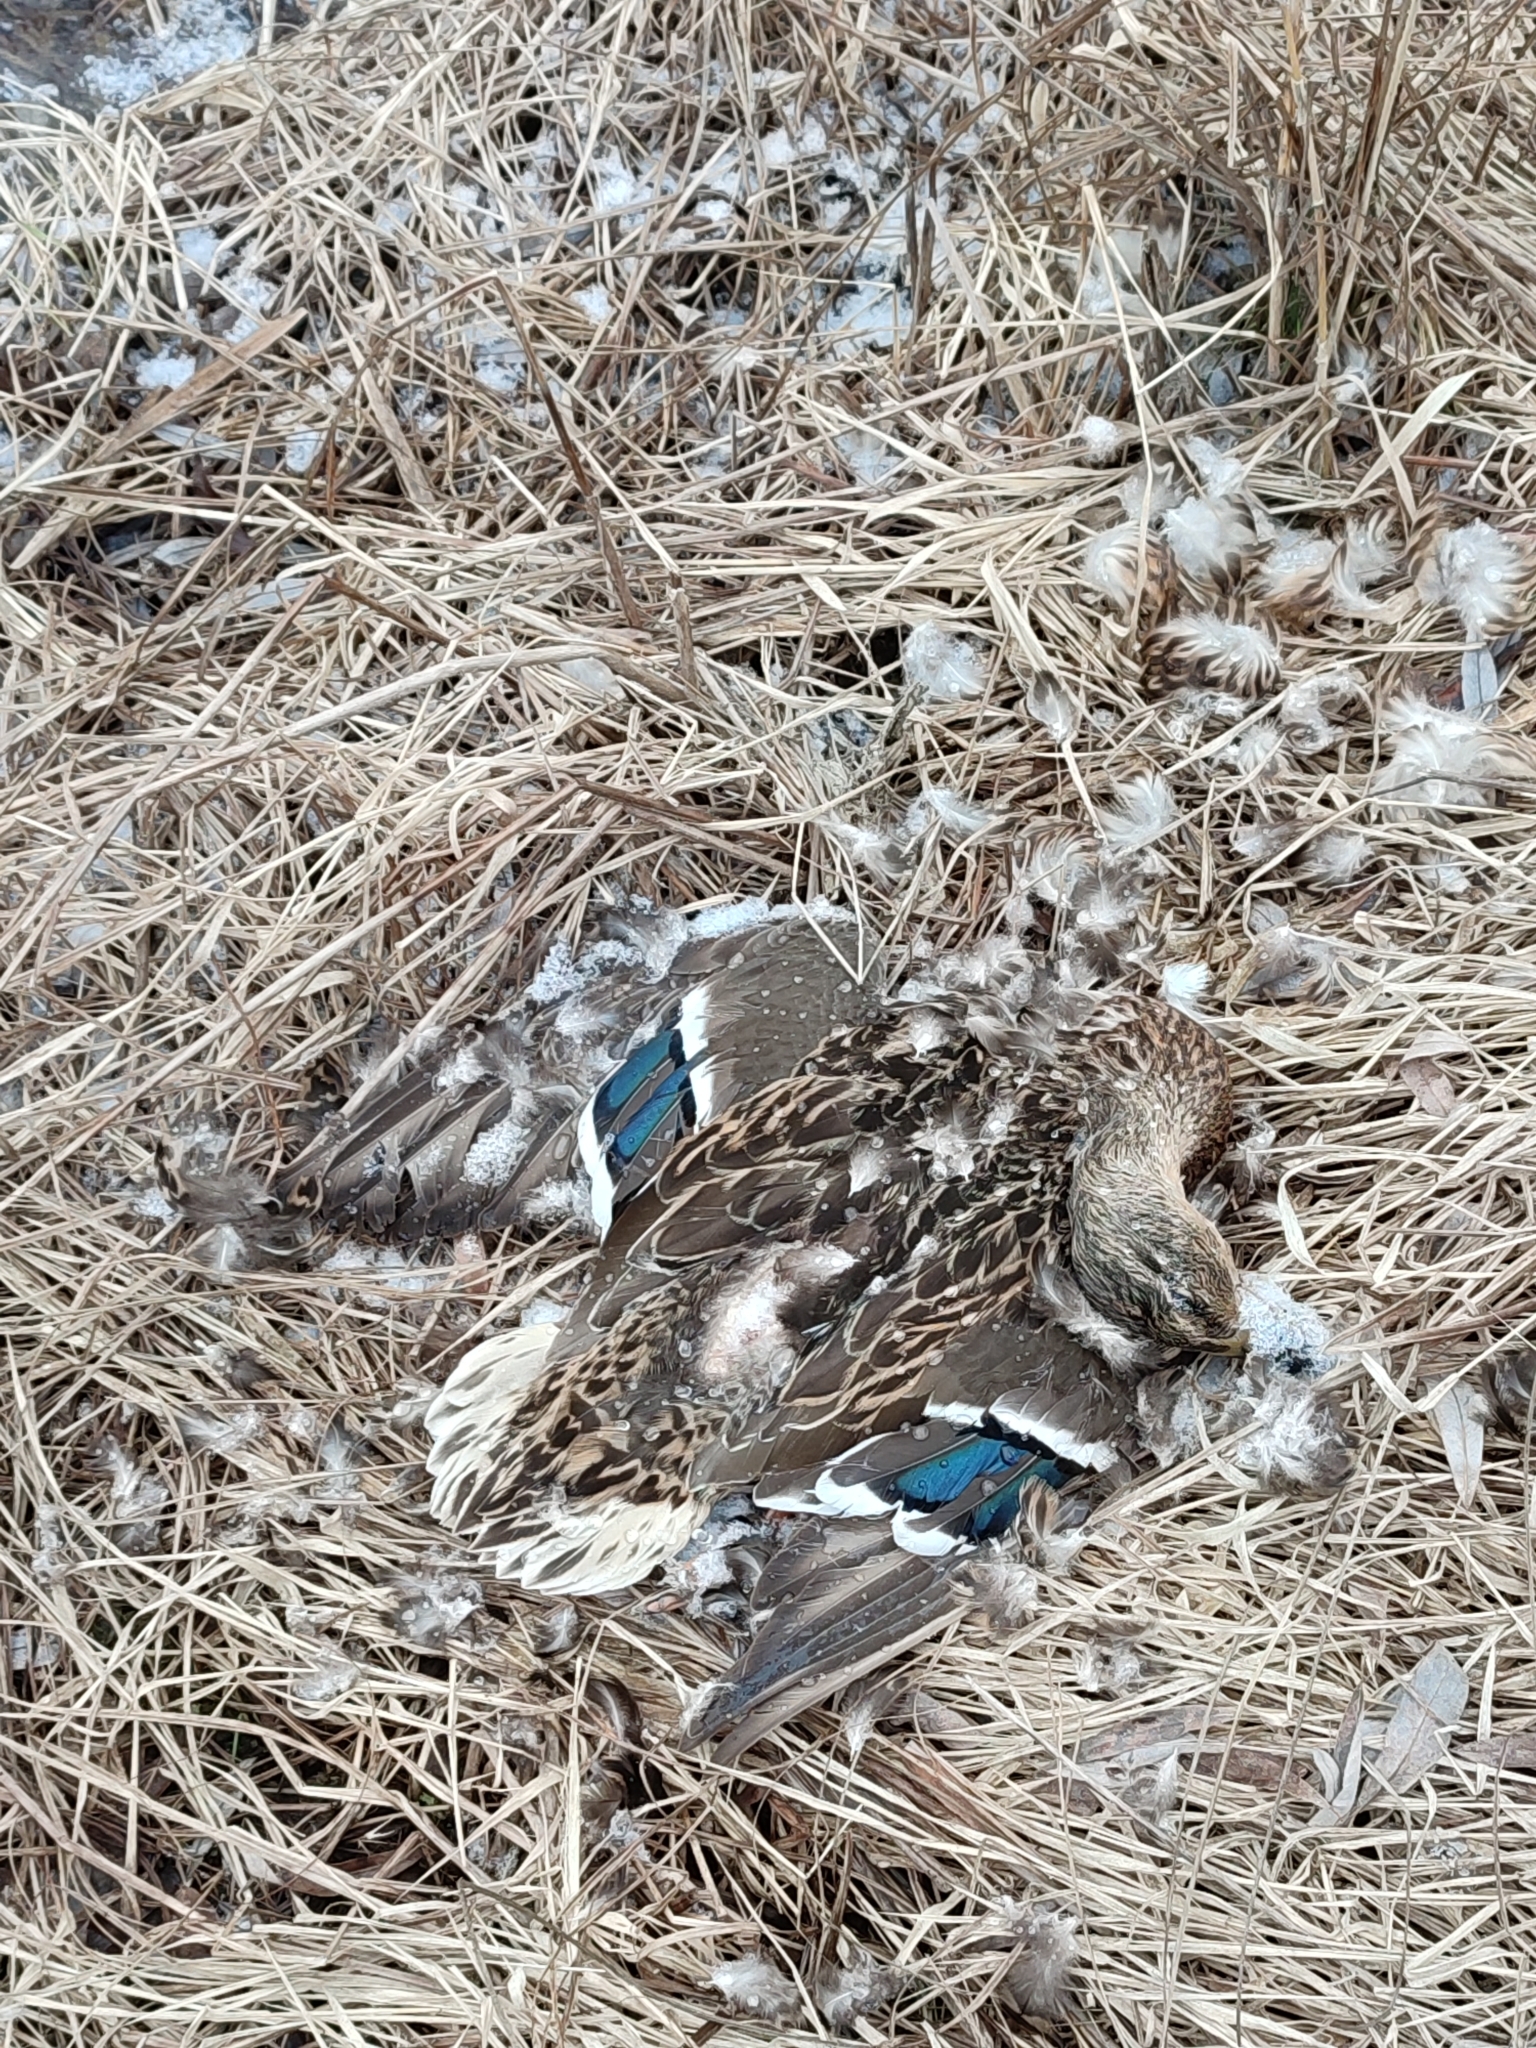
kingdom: Animalia
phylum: Chordata
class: Aves
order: Anseriformes
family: Anatidae
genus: Anas
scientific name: Anas platyrhynchos
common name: Mallard
